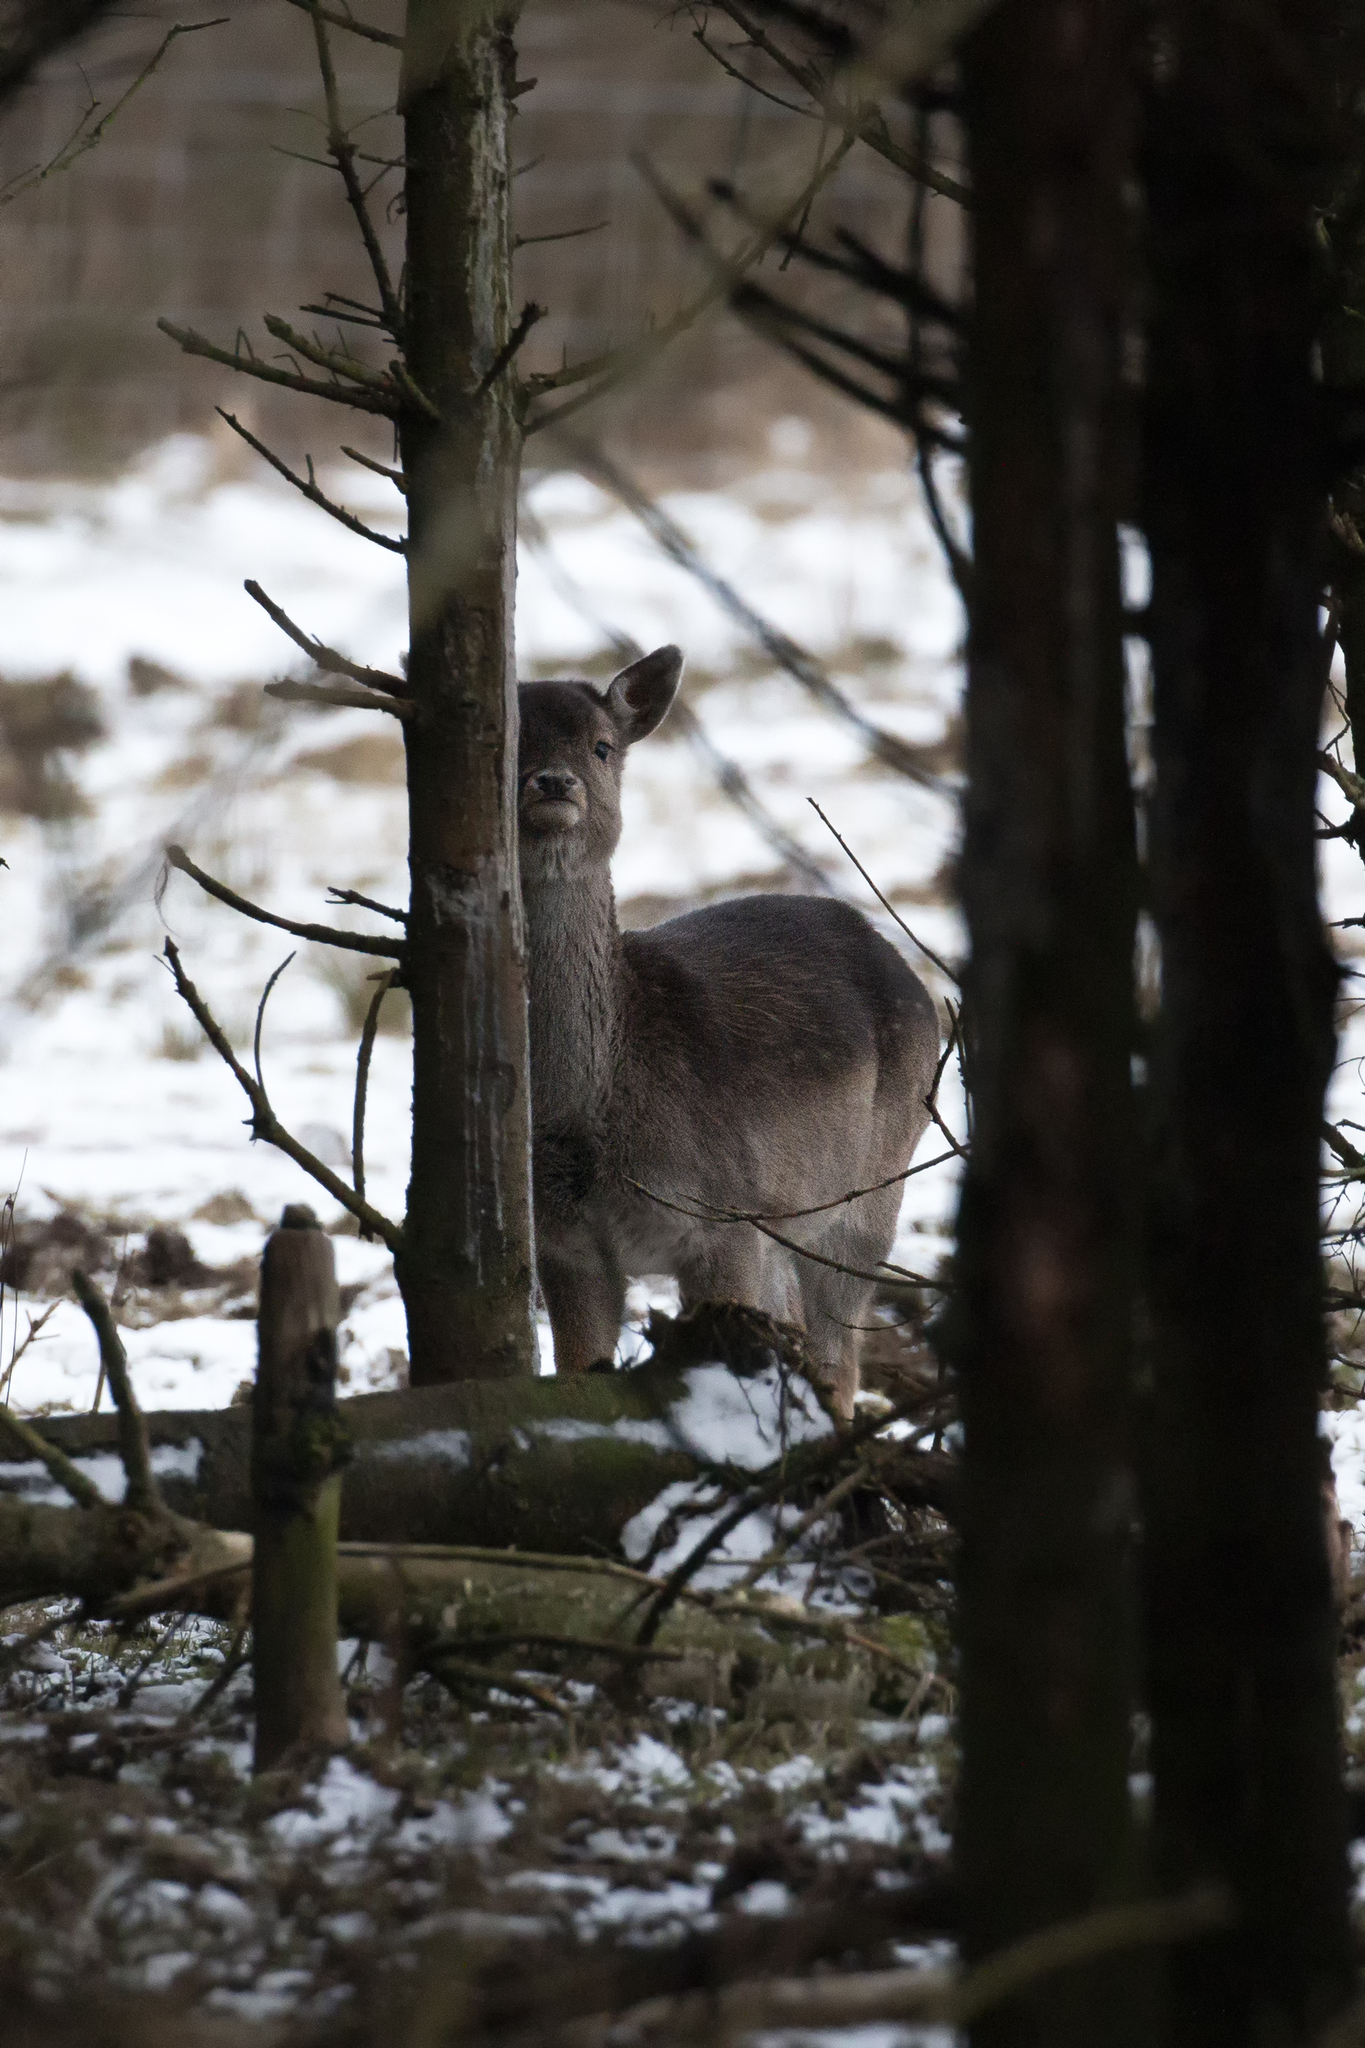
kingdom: Animalia
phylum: Chordata
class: Mammalia
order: Artiodactyla
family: Cervidae
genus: Dama
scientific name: Dama dama
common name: Fallow deer
